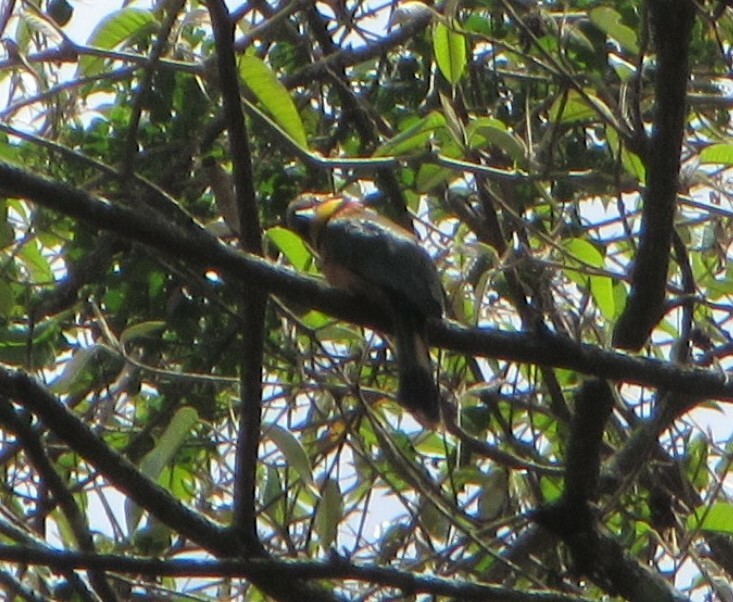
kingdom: Animalia
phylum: Chordata
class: Aves
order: Coraciiformes
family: Meropidae
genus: Merops
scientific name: Merops oreobates
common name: Cinnamon-chested bee-eater
